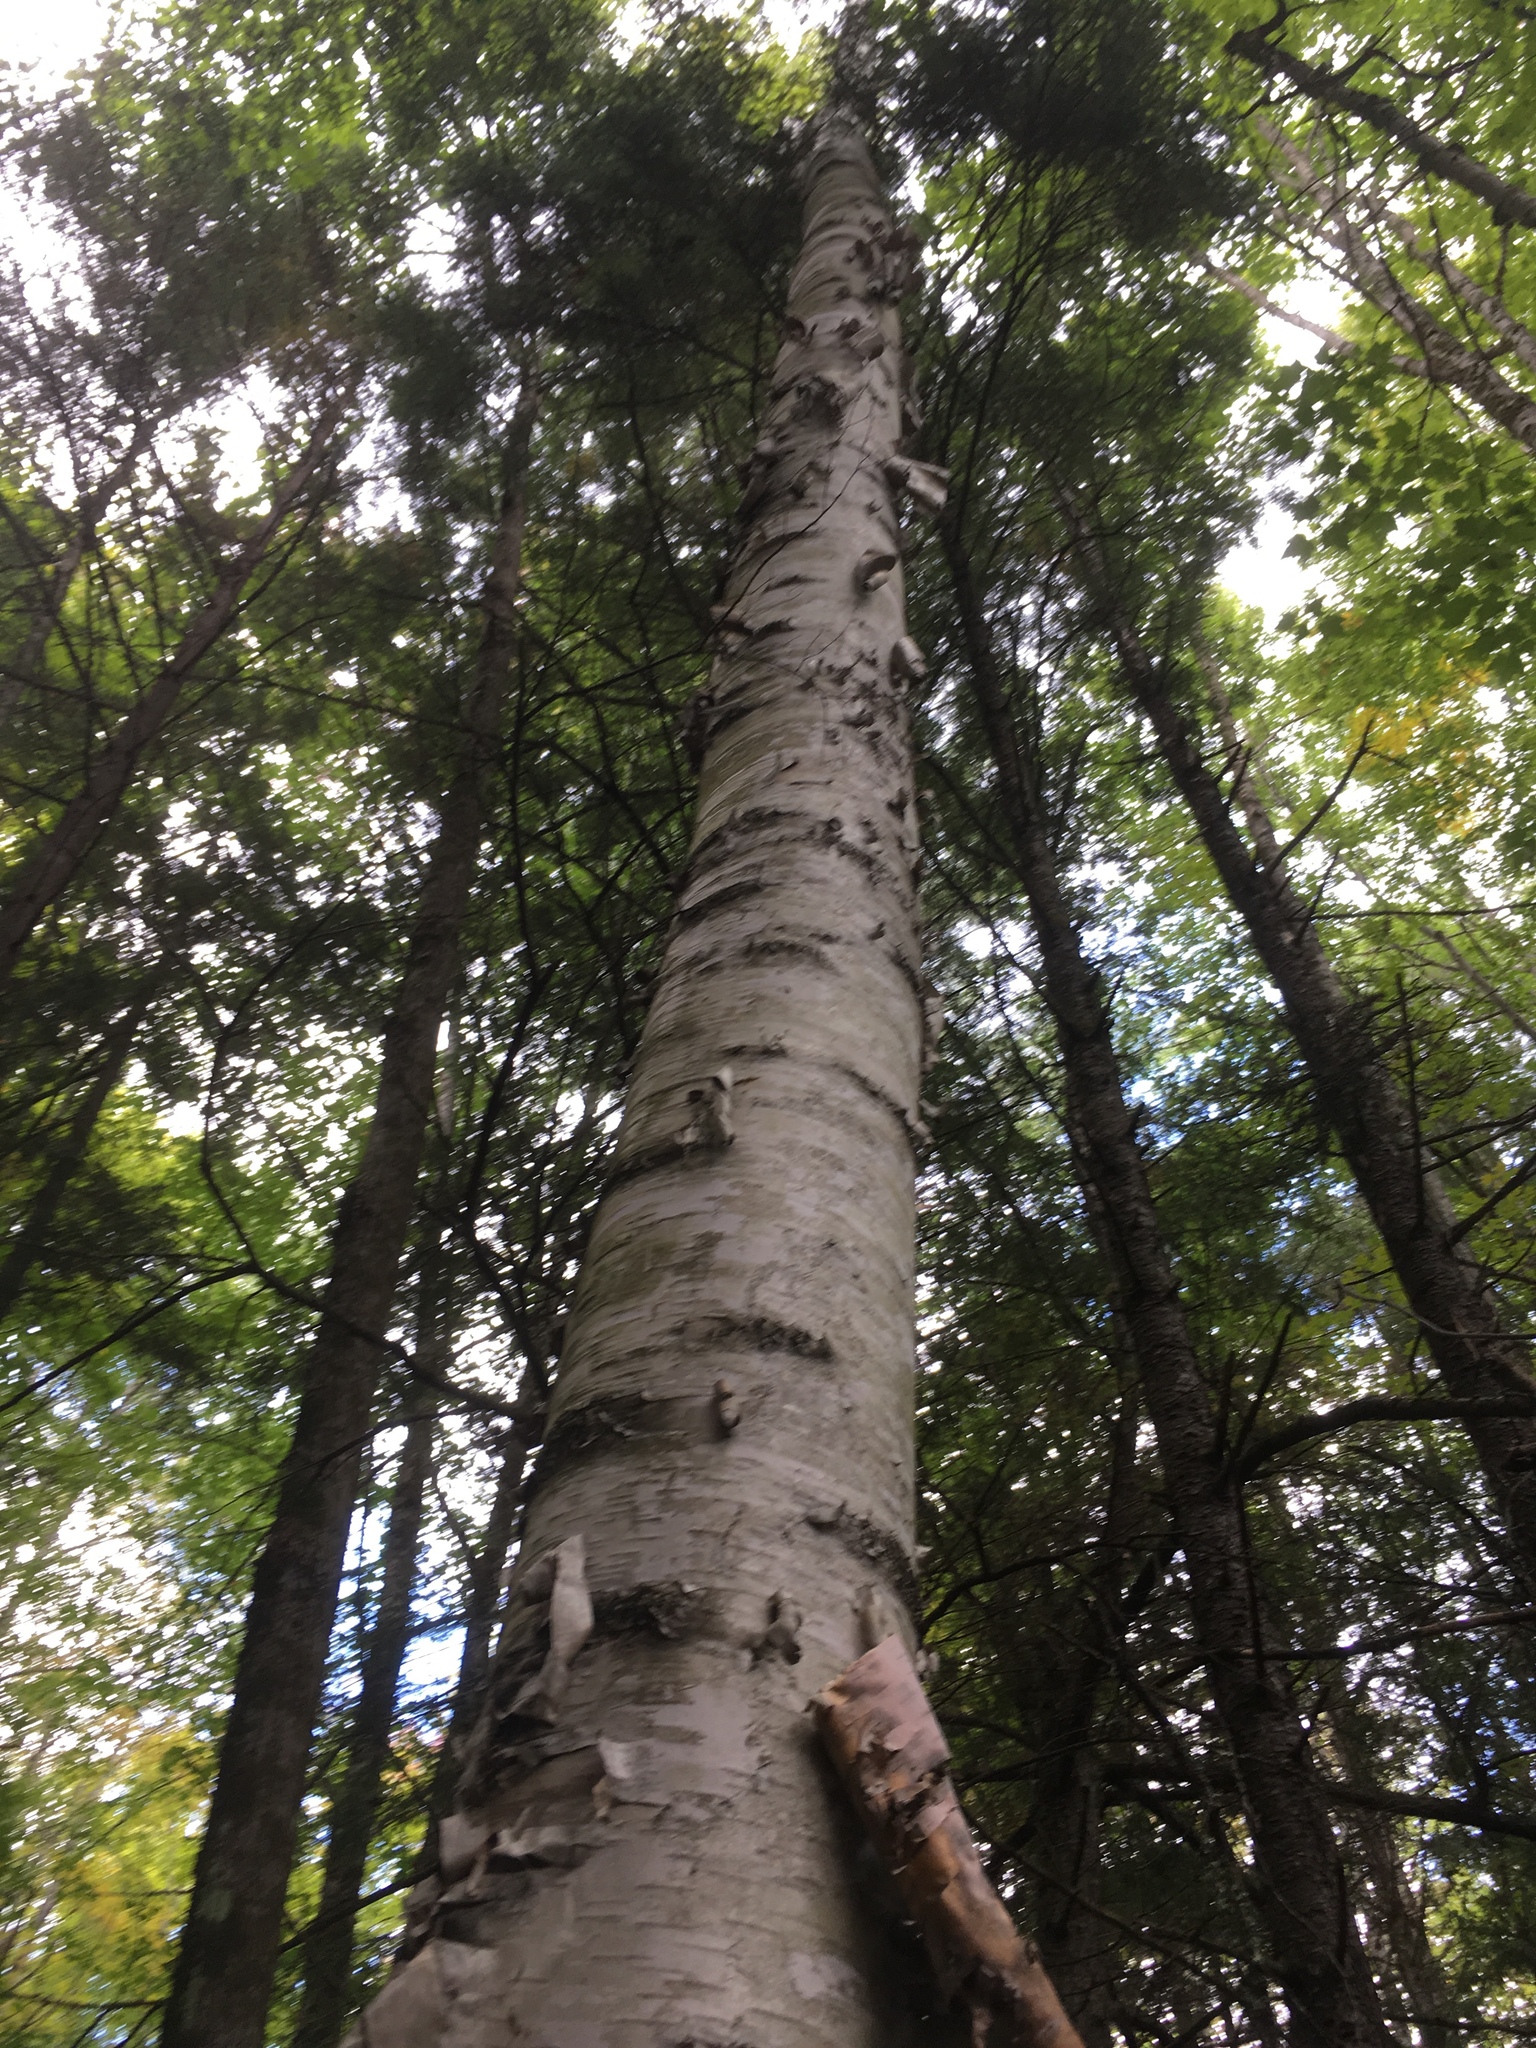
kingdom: Plantae
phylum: Tracheophyta
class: Magnoliopsida
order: Fagales
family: Betulaceae
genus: Betula
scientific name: Betula papyrifera
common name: Paper birch
